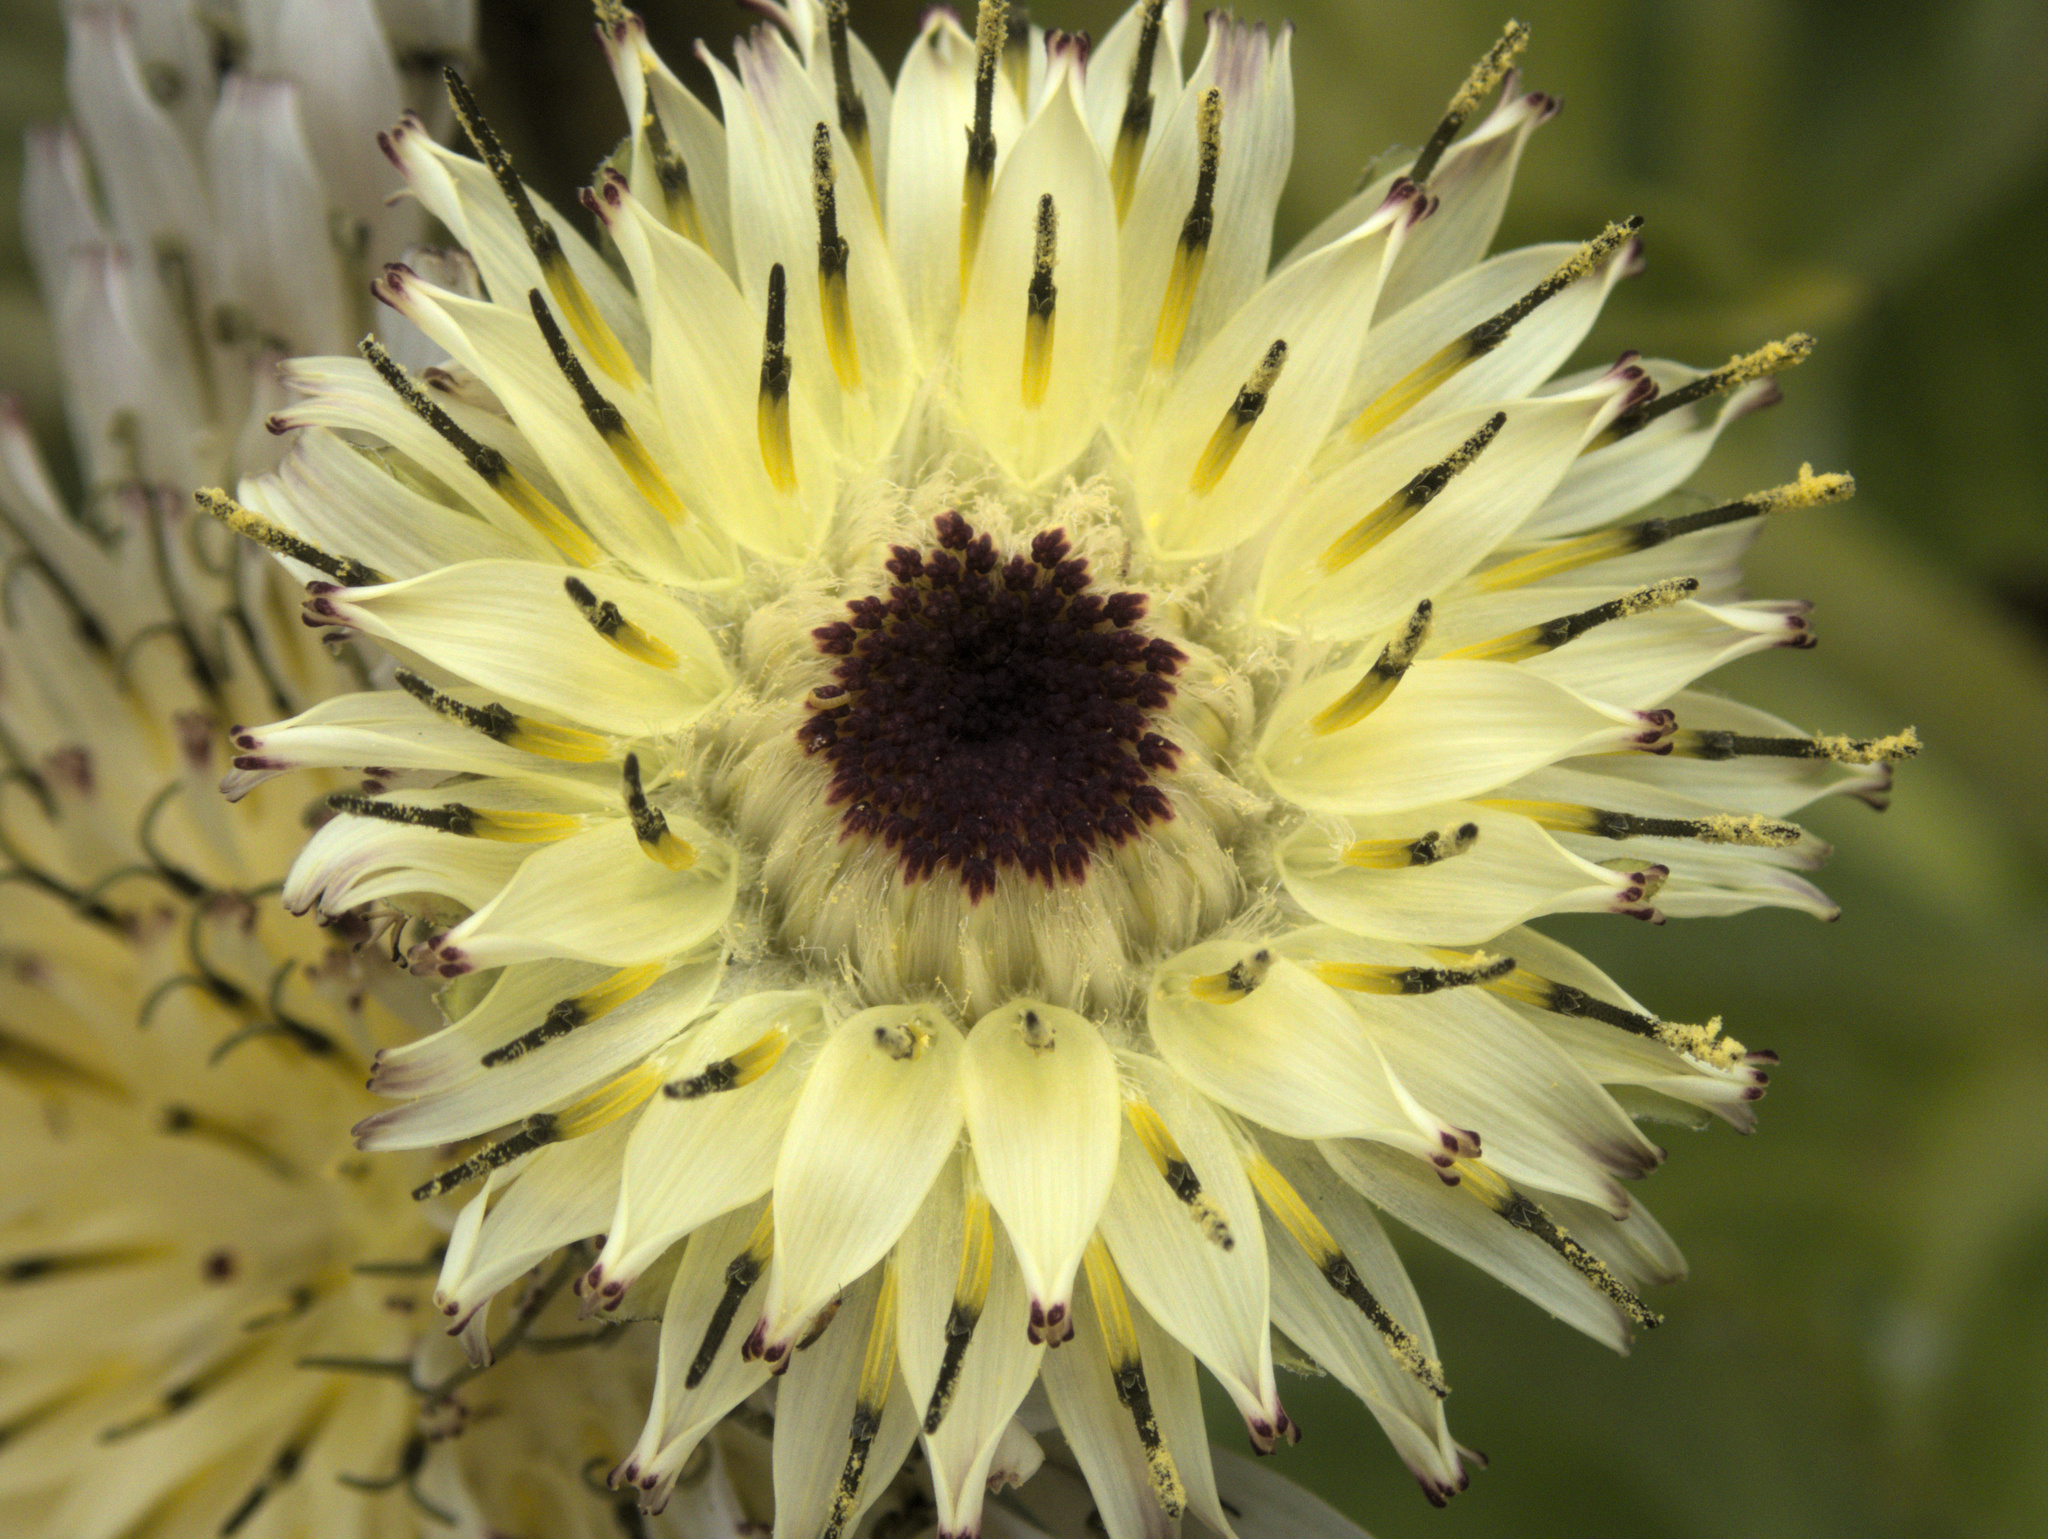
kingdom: Plantae
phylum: Tracheophyta
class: Magnoliopsida
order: Asterales
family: Asteraceae
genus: Sonchus
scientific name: Sonchus grandifolius
